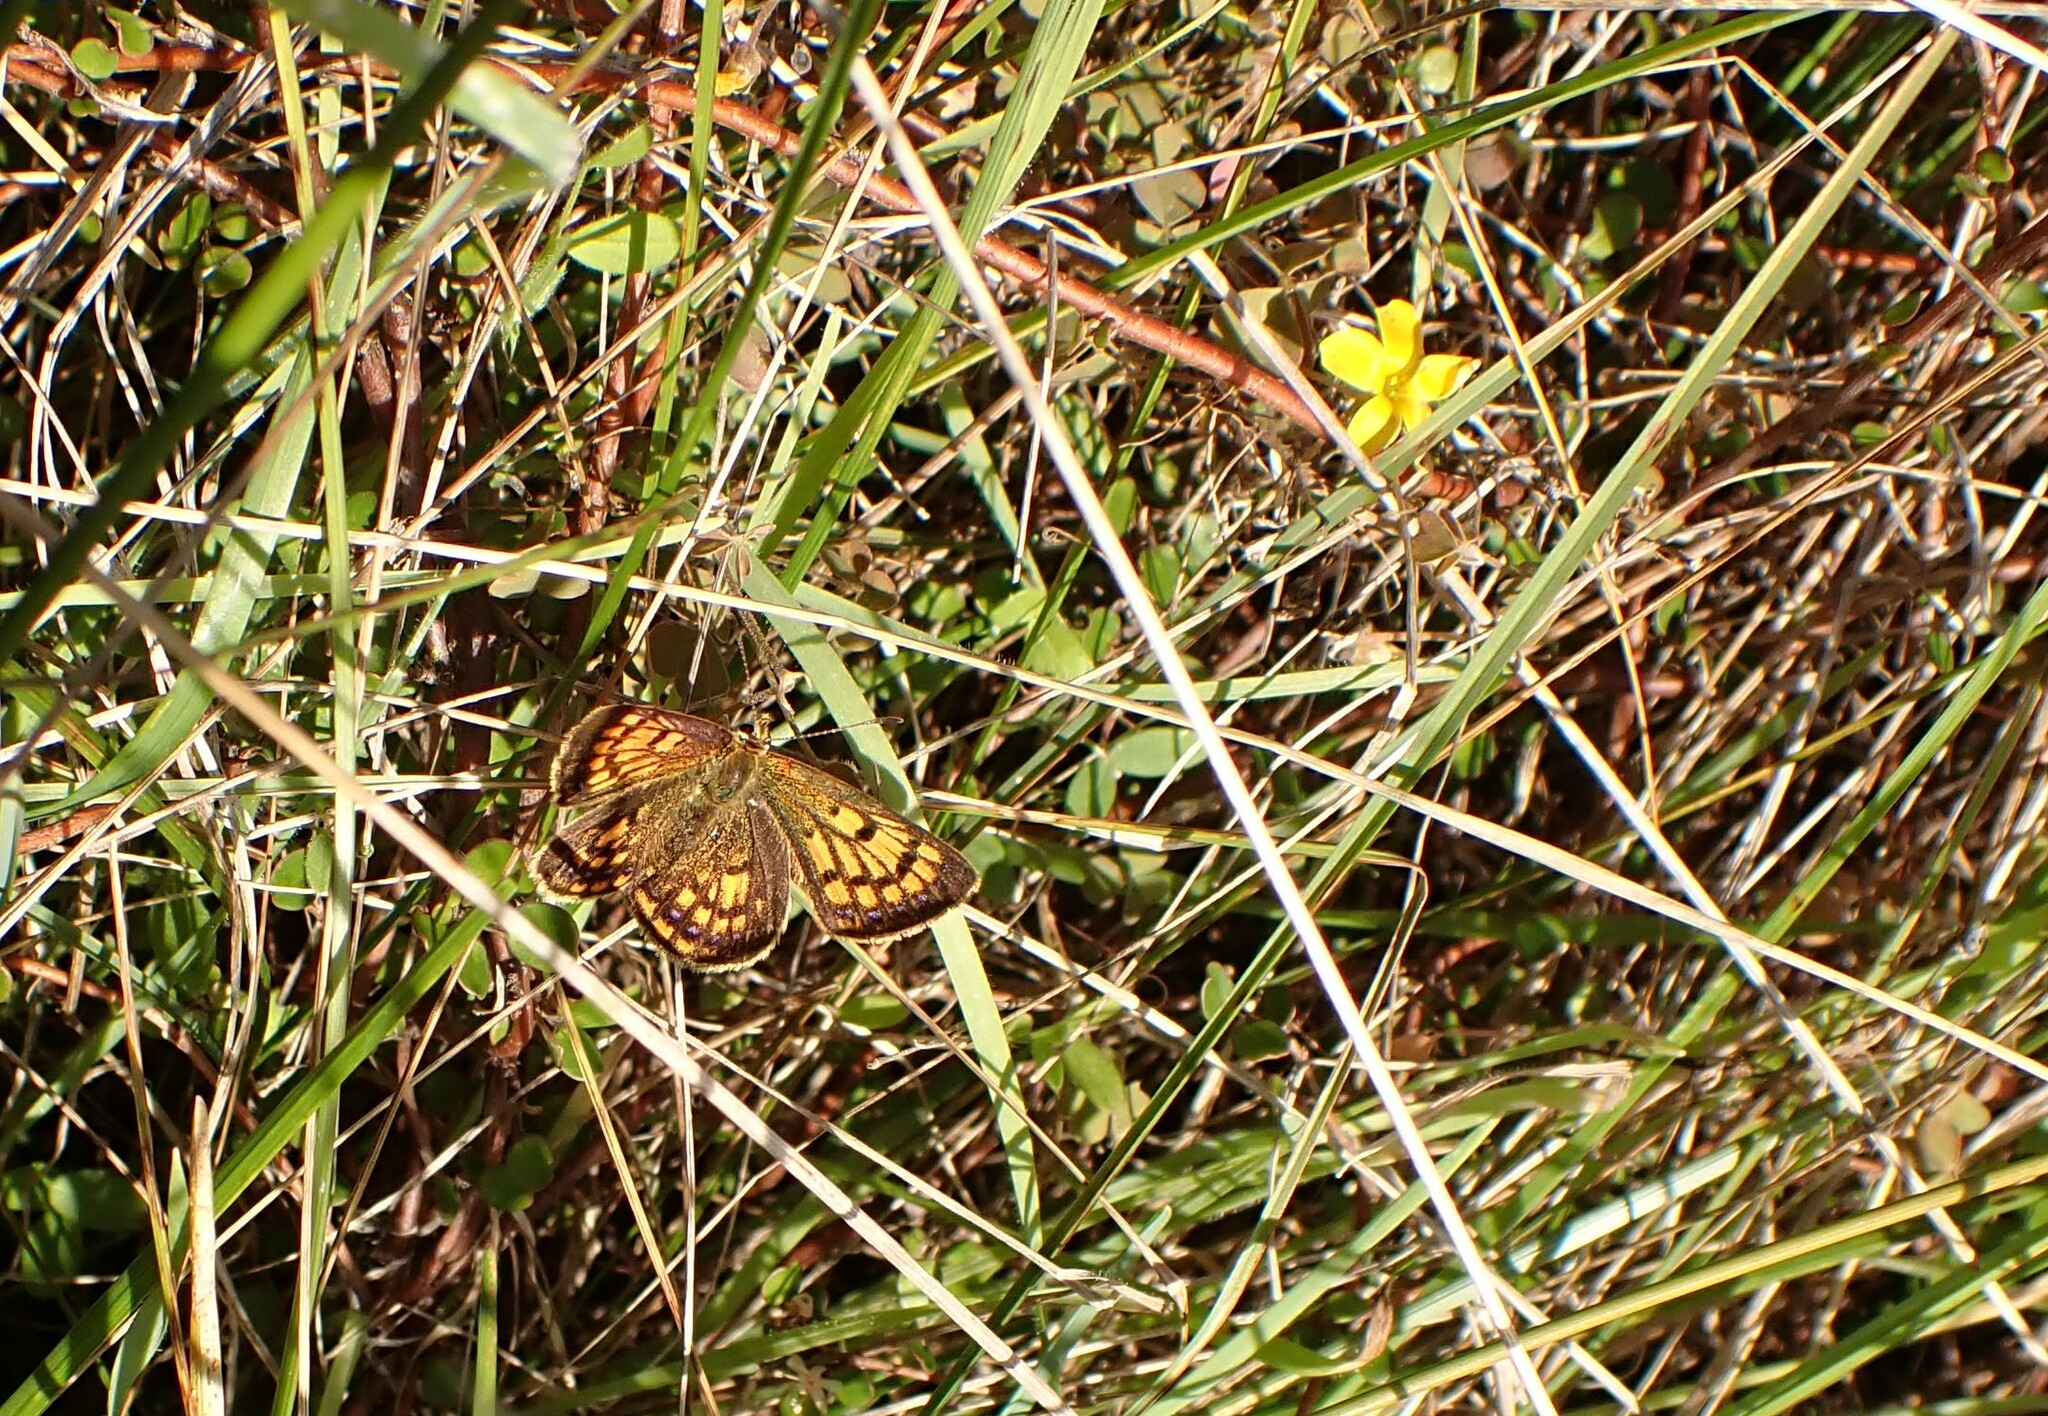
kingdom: Animalia
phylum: Arthropoda
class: Insecta
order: Lepidoptera
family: Lycaenidae
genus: Lycaena
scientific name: Lycaena
